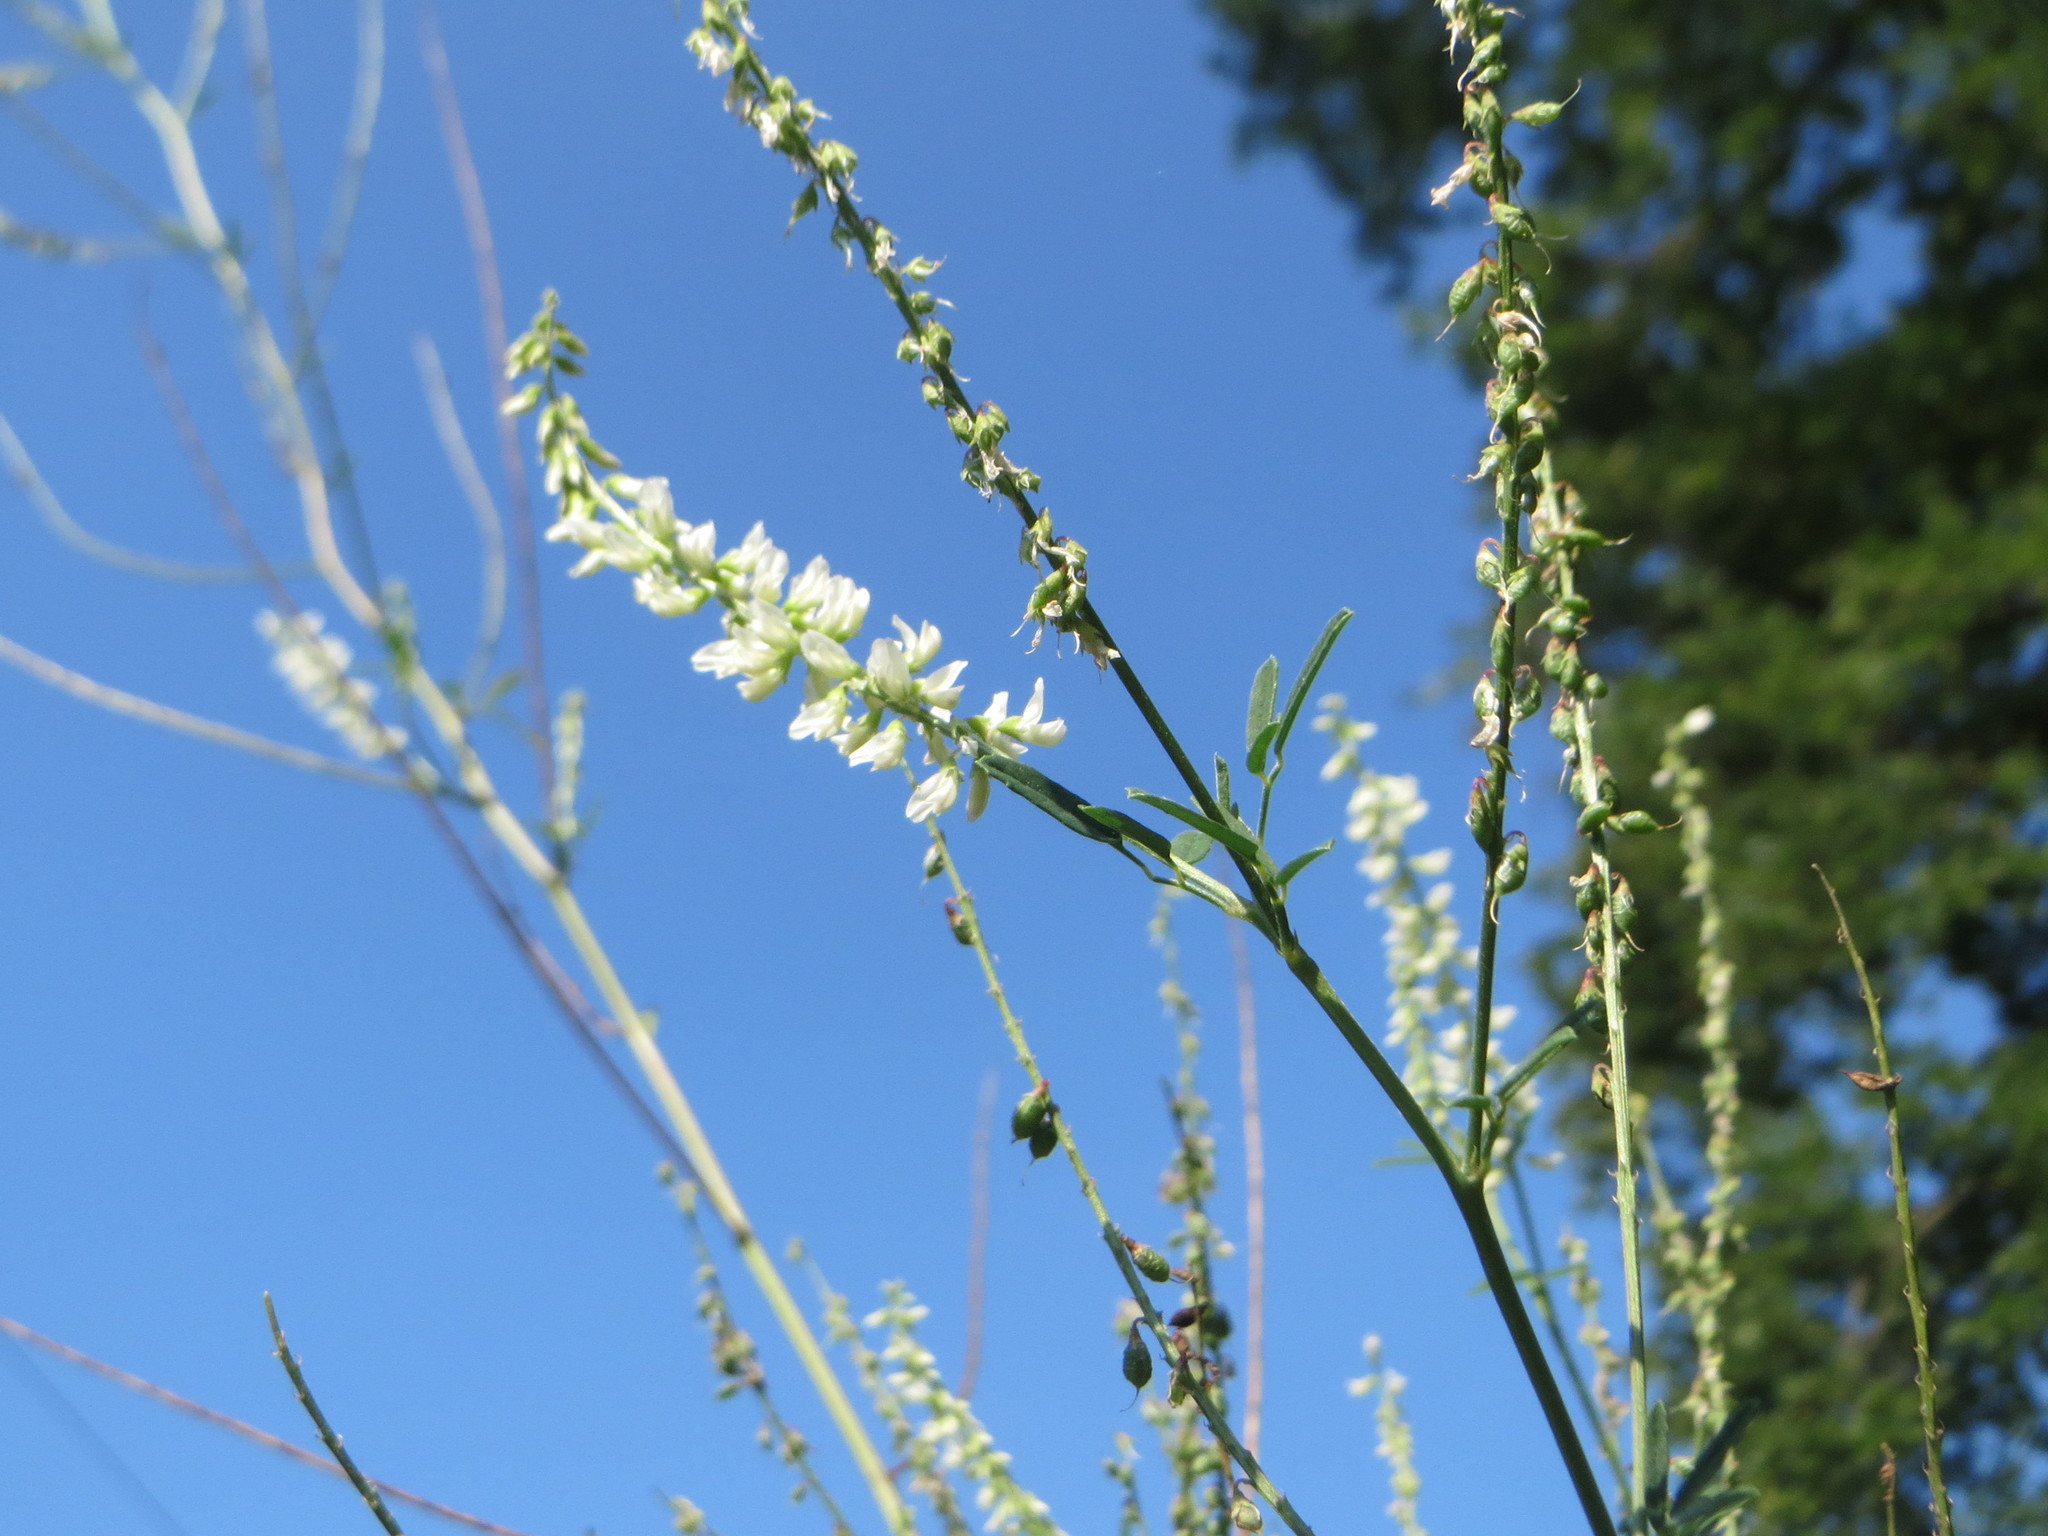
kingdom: Plantae
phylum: Tracheophyta
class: Magnoliopsida
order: Fabales
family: Fabaceae
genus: Melilotus
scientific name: Melilotus albus
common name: White melilot
